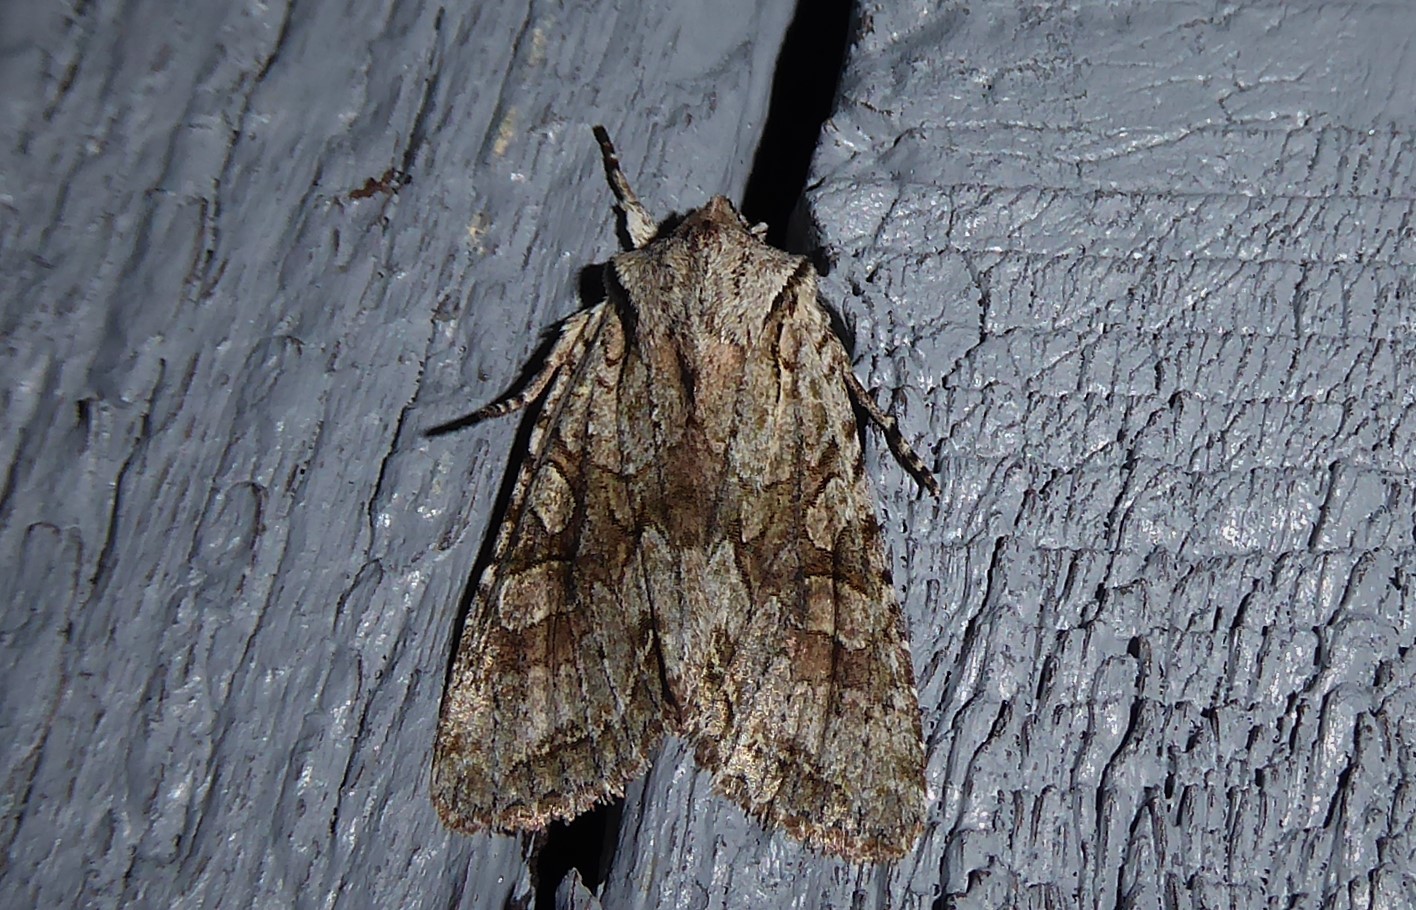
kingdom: Animalia
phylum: Arthropoda
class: Insecta
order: Lepidoptera
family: Noctuidae
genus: Ichneutica
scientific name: Ichneutica mutans
